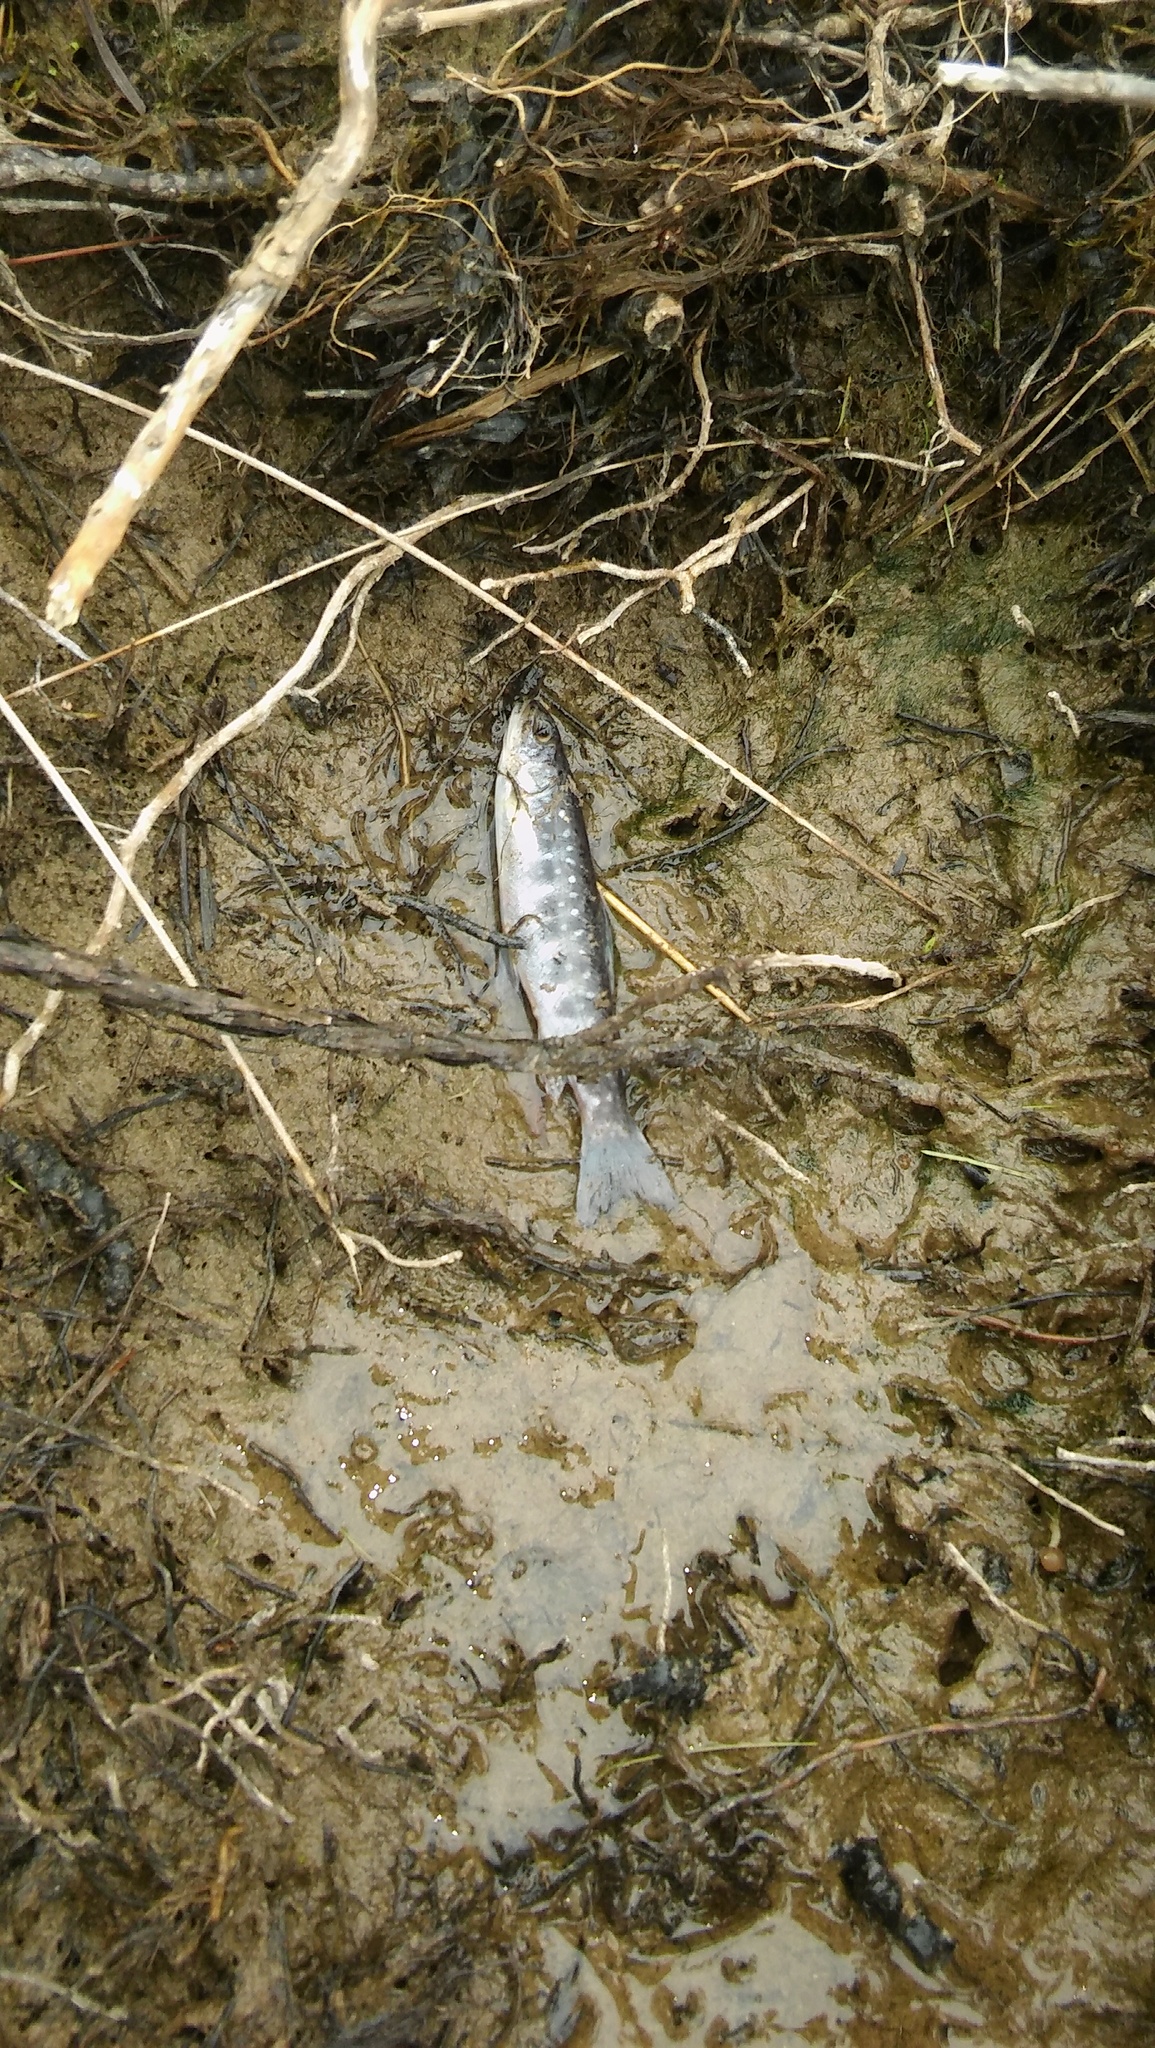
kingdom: Animalia
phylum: Chordata
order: Salmoniformes
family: Salmonidae
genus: Salvelinus
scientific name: Salvelinus fontinalis
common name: Brook trout
